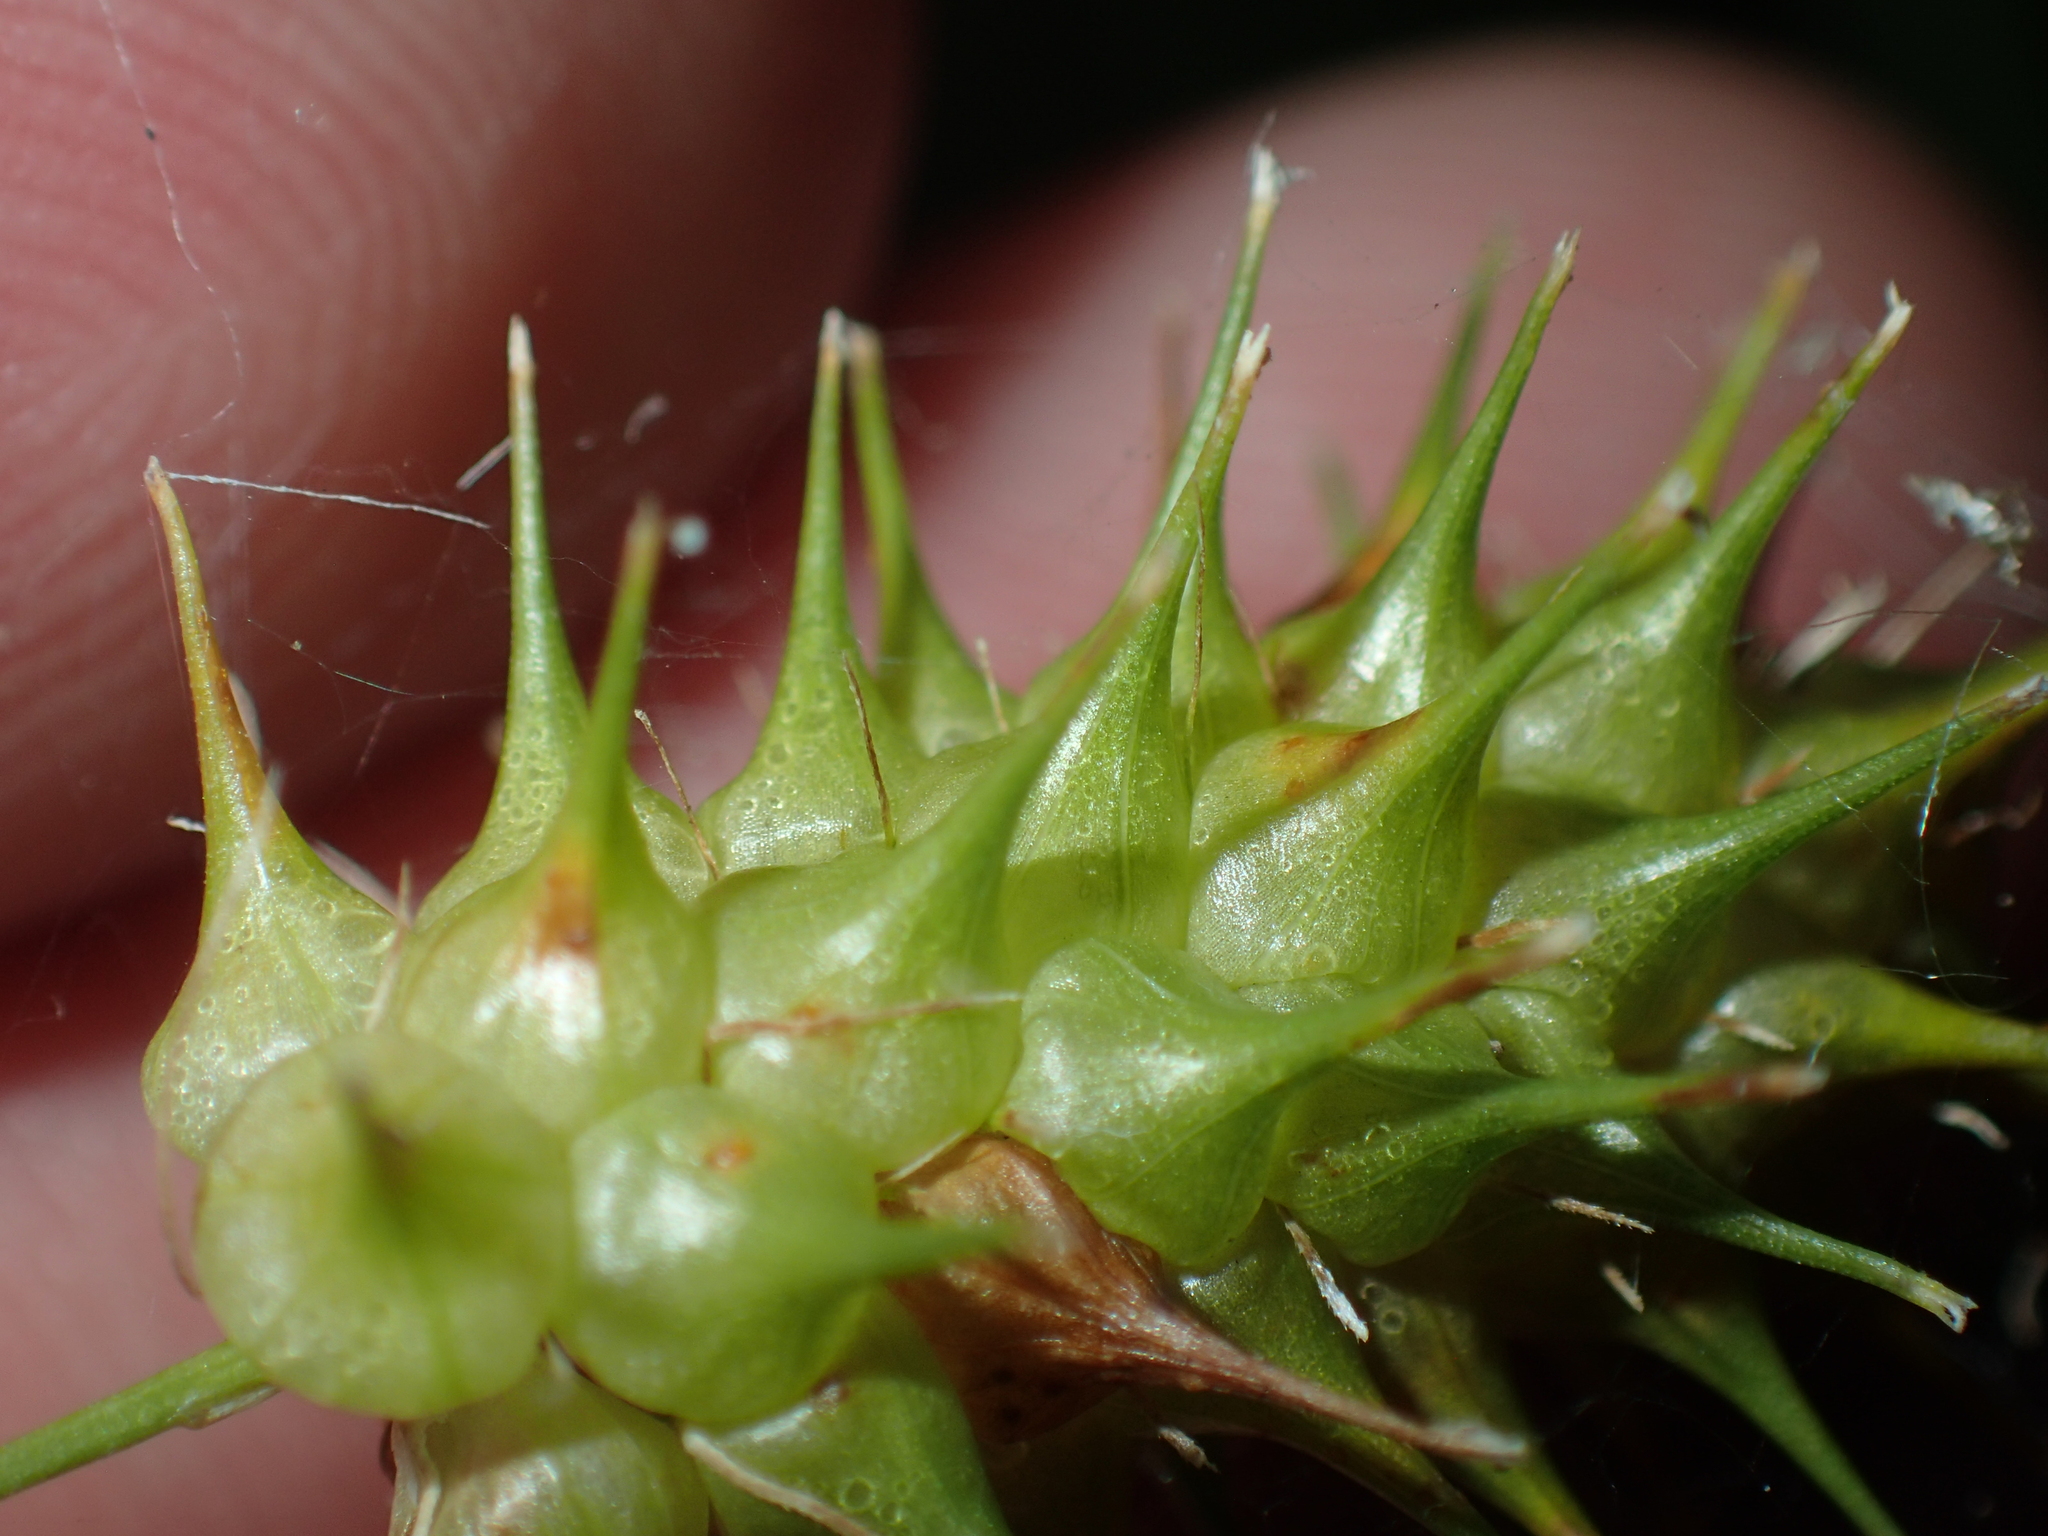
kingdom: Plantae
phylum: Tracheophyta
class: Liliopsida
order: Poales
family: Cyperaceae
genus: Carex
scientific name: Carex lurida
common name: Sallow sedge
